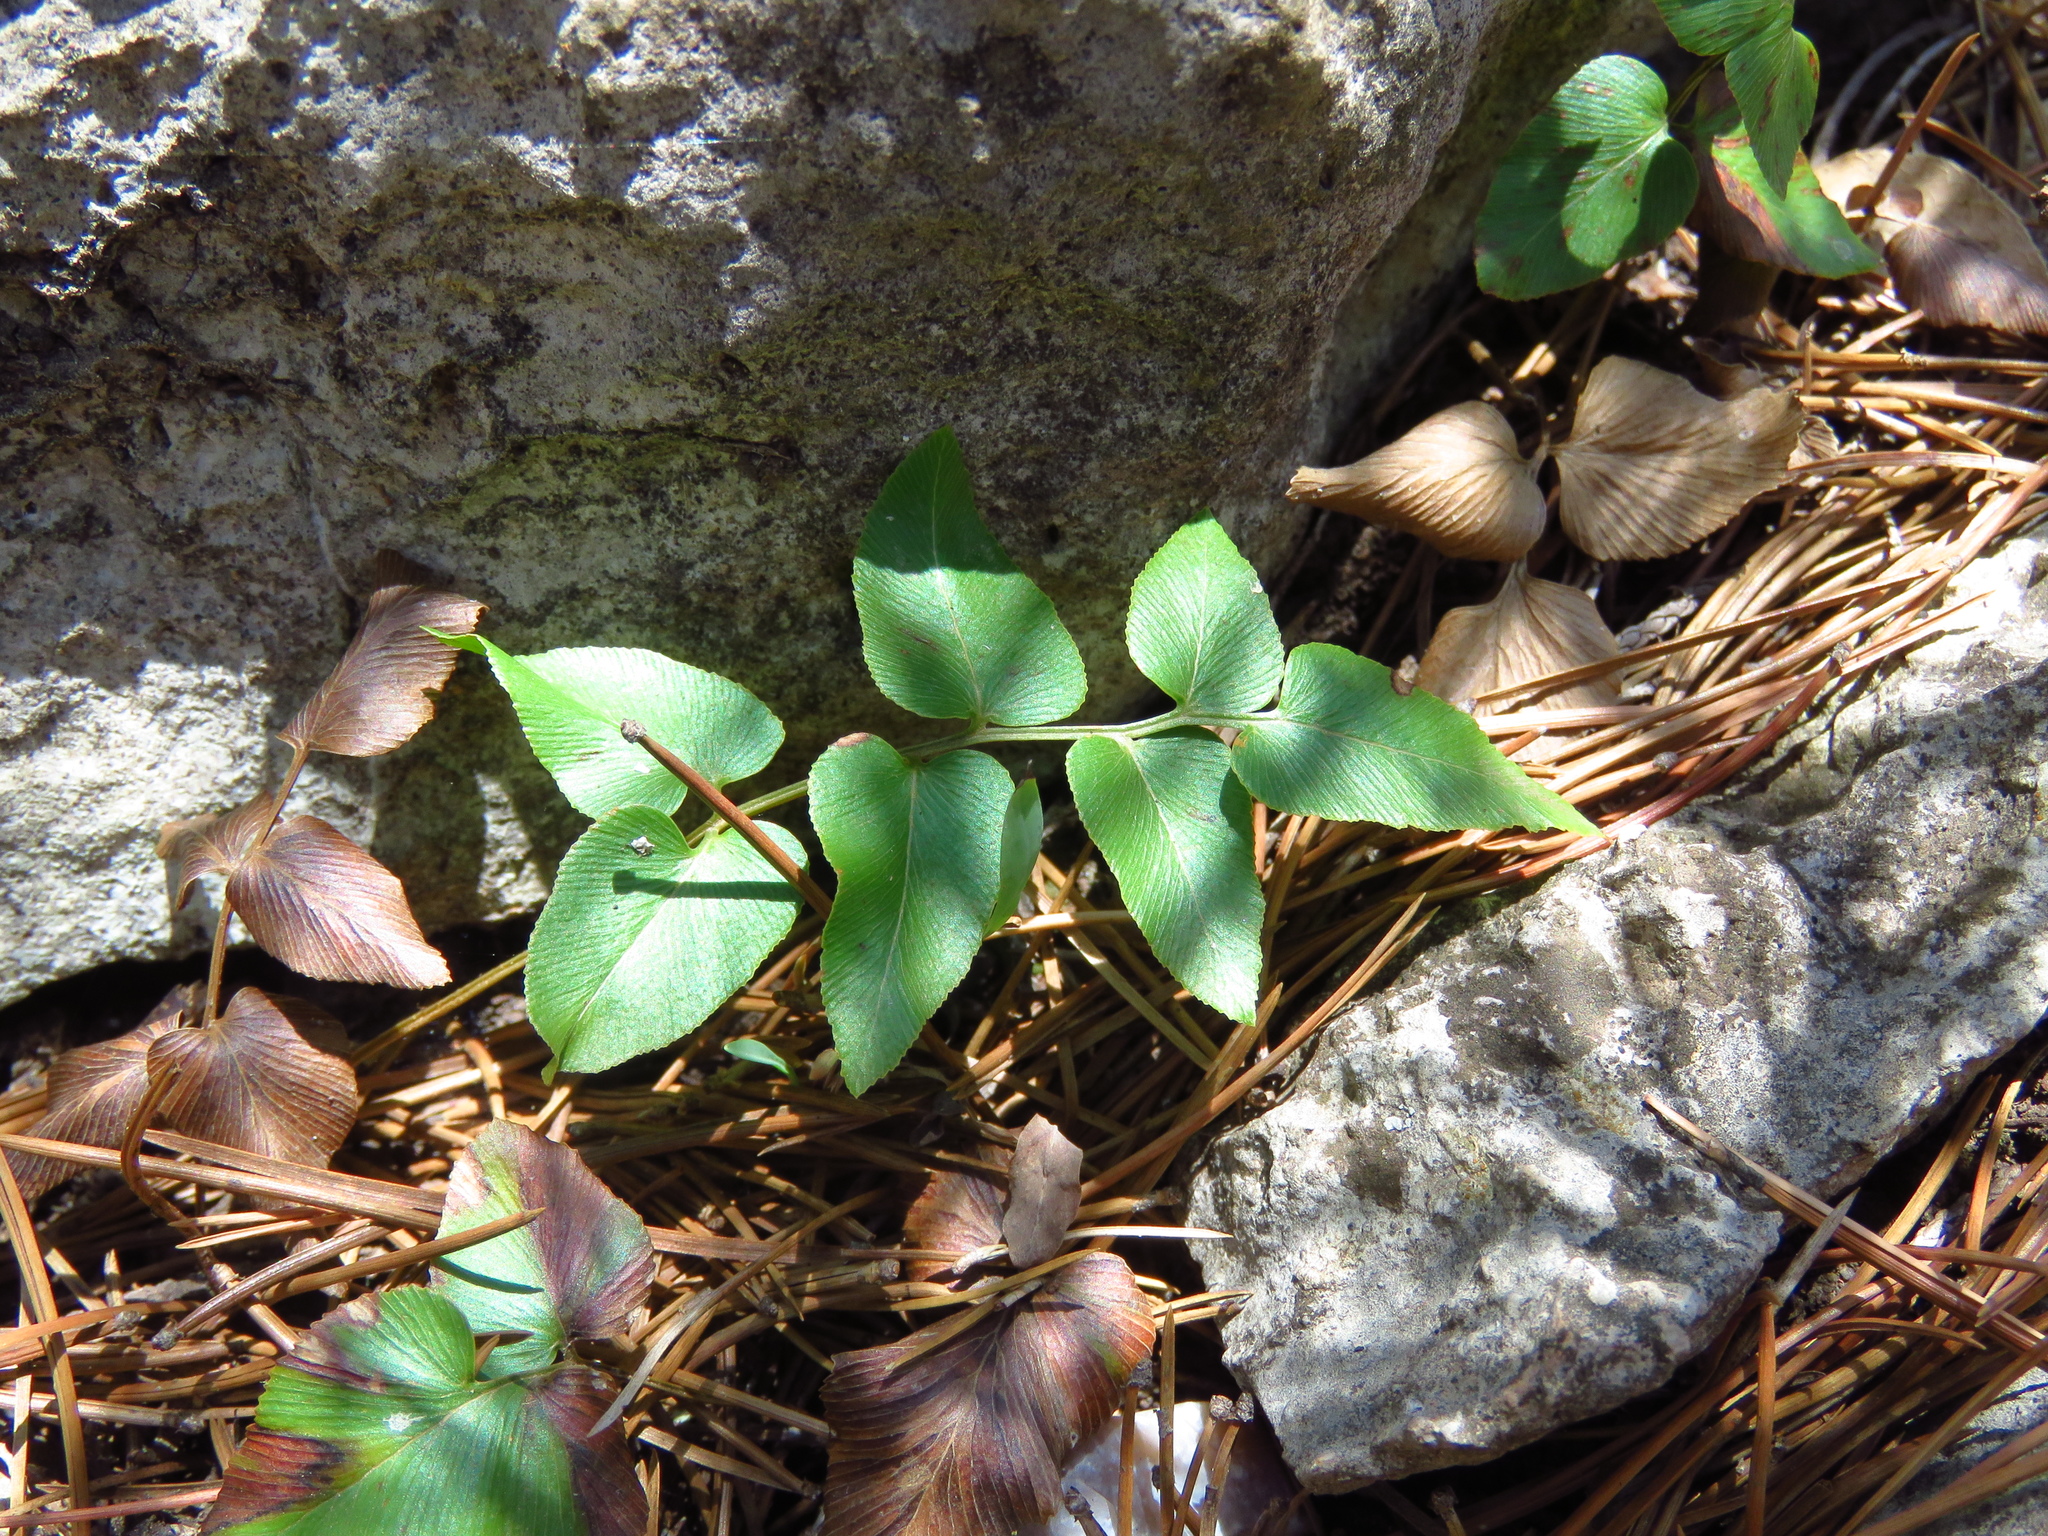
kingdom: Plantae
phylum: Tracheophyta
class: Polypodiopsida
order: Schizaeales
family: Anemiaceae
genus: Anemia
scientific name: Anemia mexicana
